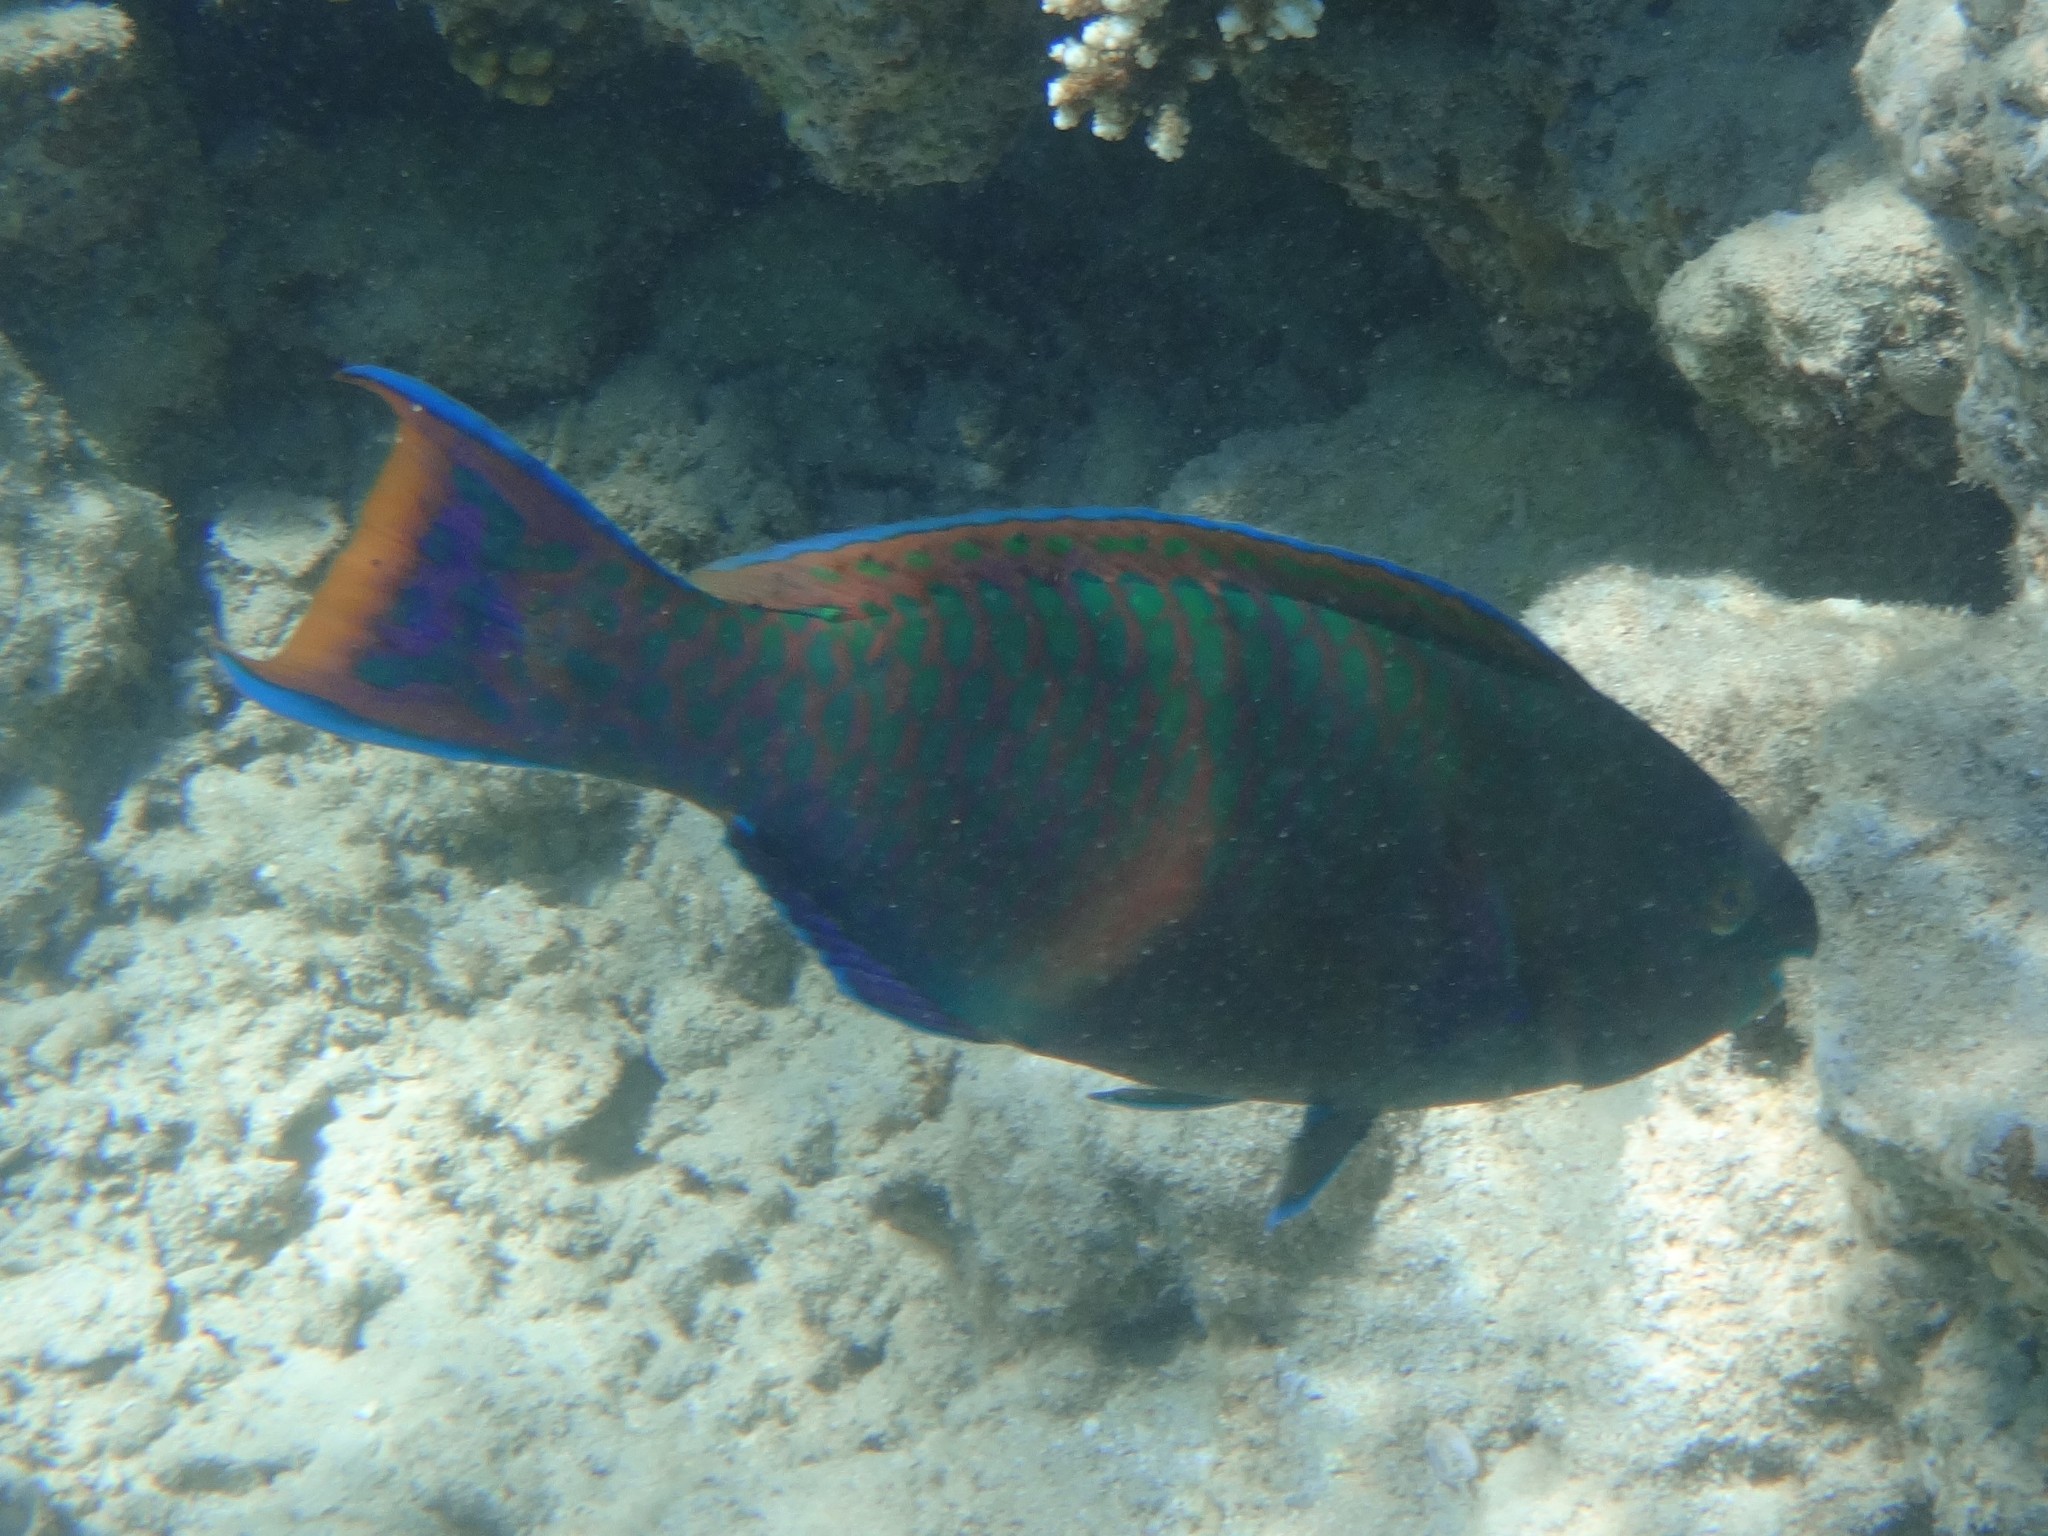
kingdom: Animalia
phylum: Chordata
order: Perciformes
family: Scaridae
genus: Scarus
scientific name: Scarus fuscopurpureus
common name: Purple-brown parrotfish
